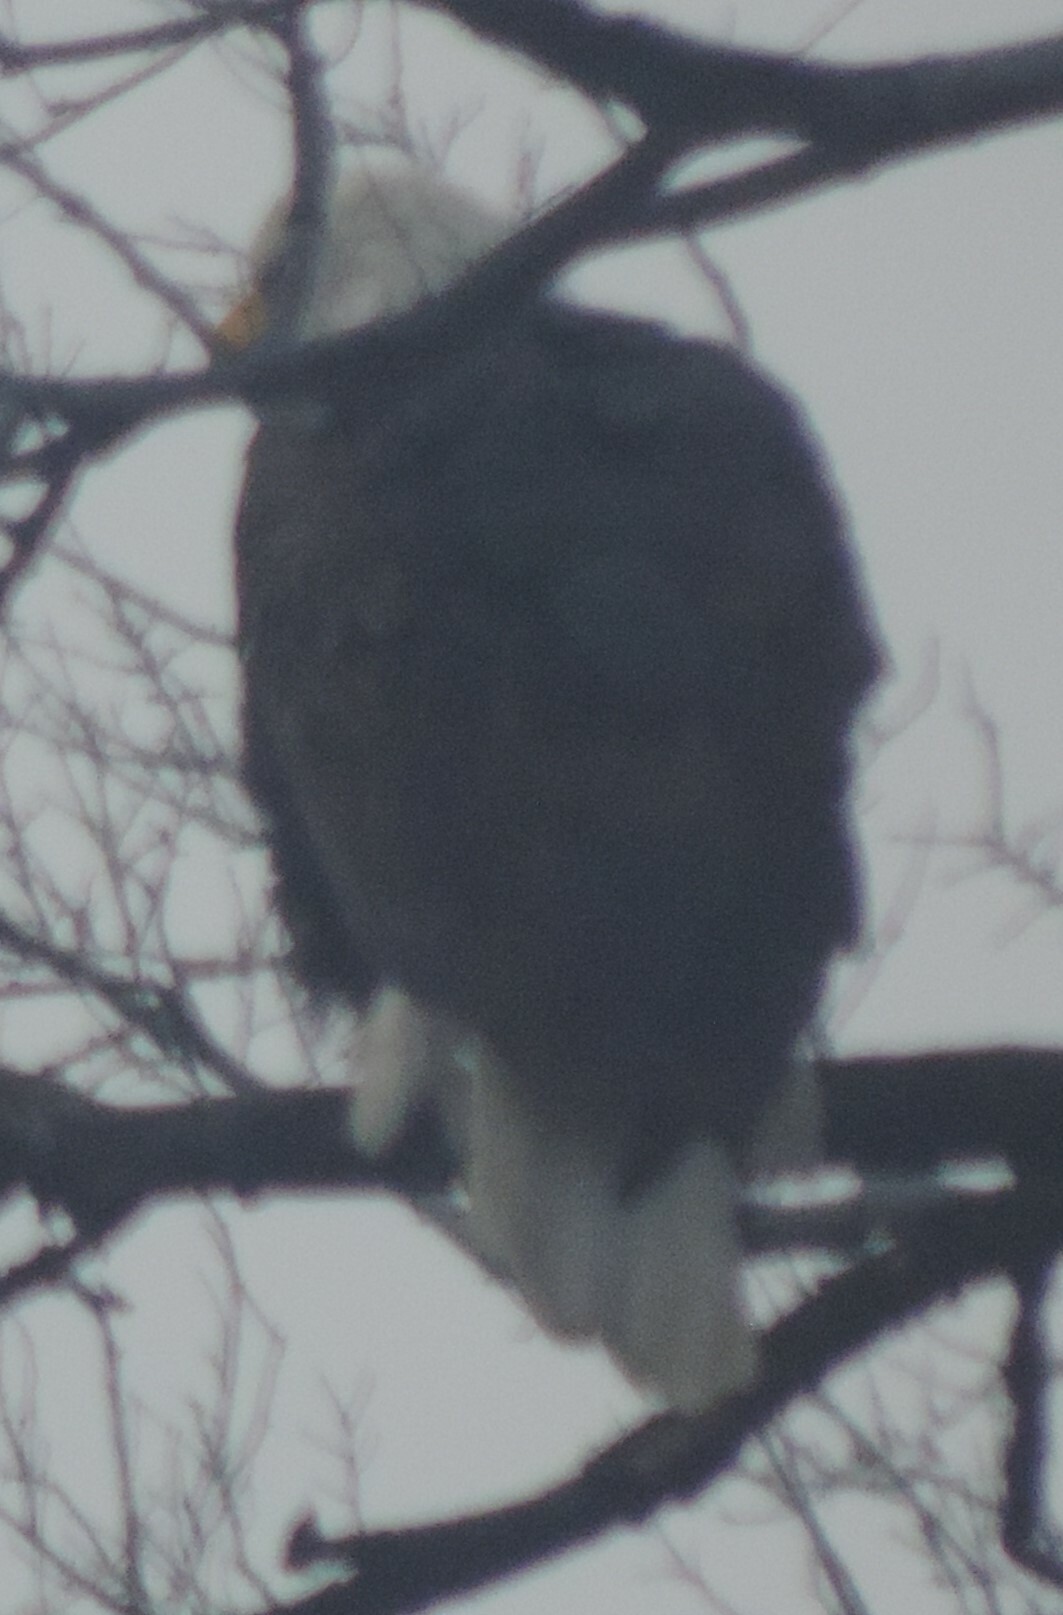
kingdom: Animalia
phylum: Chordata
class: Aves
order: Accipitriformes
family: Accipitridae
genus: Haliaeetus
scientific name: Haliaeetus leucocephalus
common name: Bald eagle
